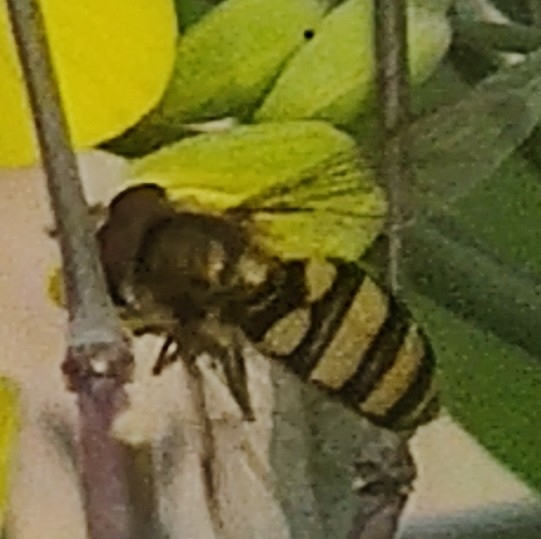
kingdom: Animalia
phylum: Arthropoda
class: Insecta
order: Diptera
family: Syrphidae
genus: Eupeodes
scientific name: Eupeodes
